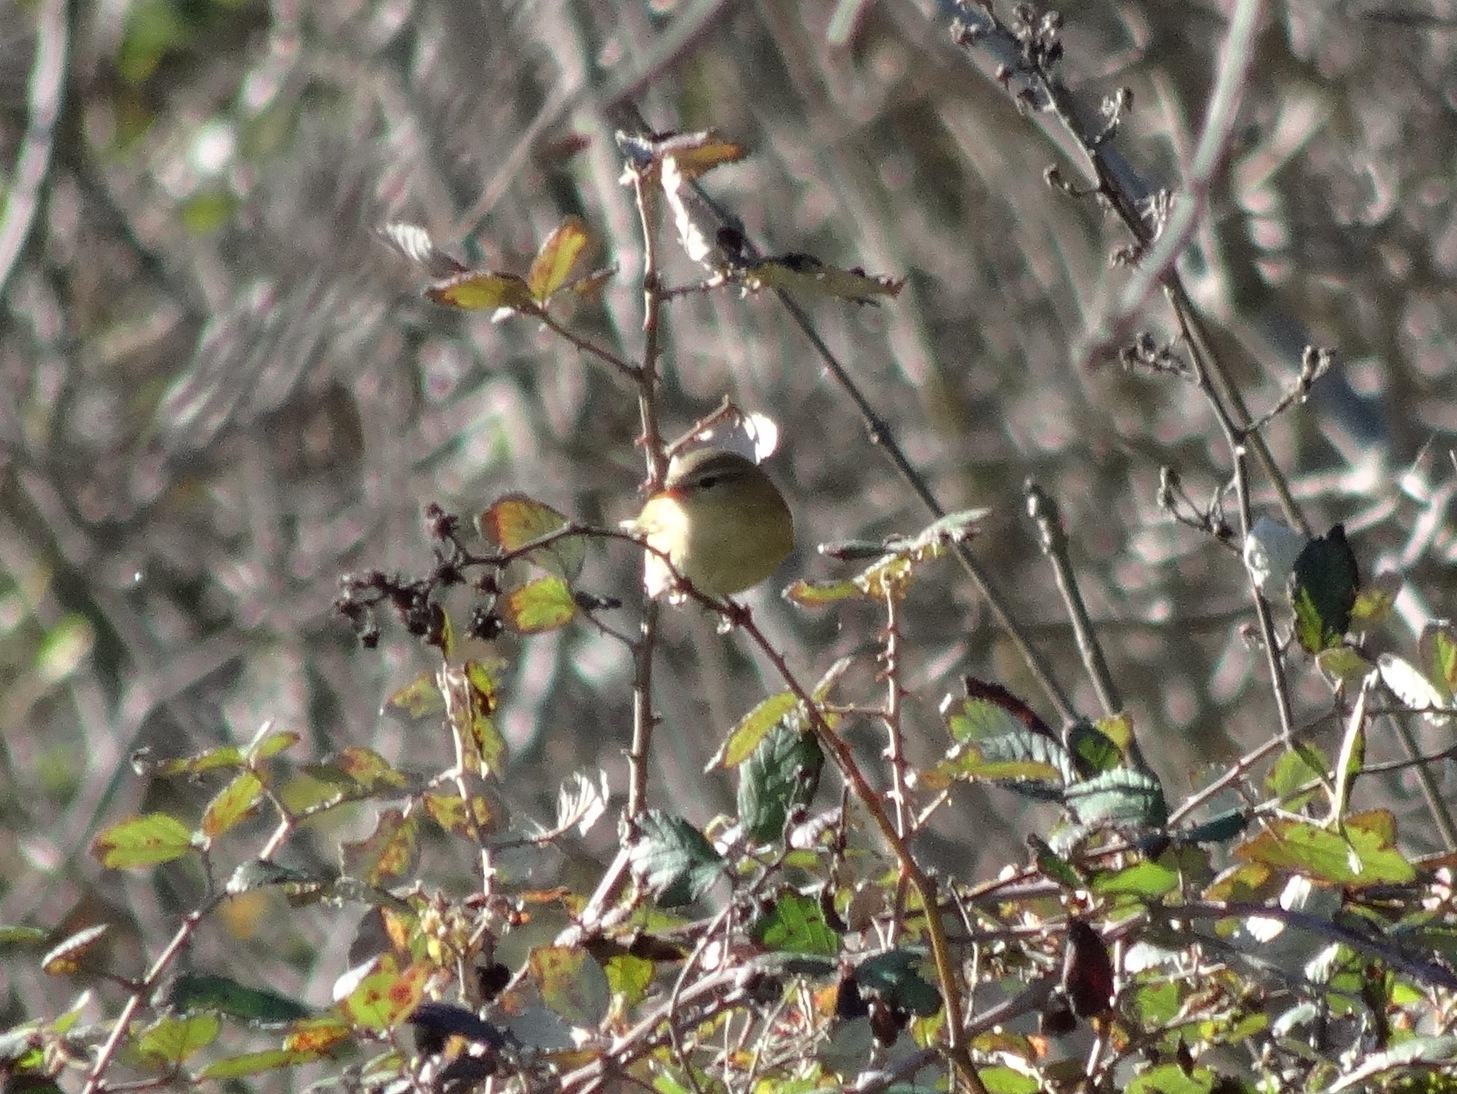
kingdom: Animalia
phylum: Chordata
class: Aves
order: Passeriformes
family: Phylloscopidae
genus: Phylloscopus
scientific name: Phylloscopus collybita
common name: Common chiffchaff
